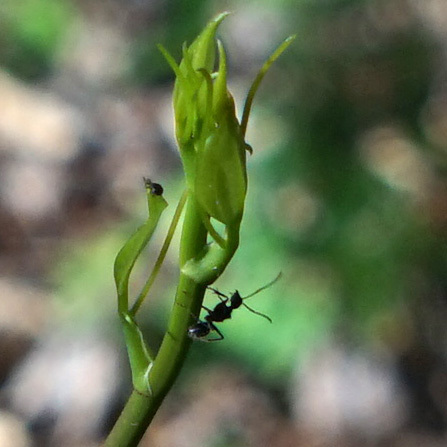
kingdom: Animalia
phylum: Arthropoda
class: Insecta
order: Hymenoptera
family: Formicidae
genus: Camponotus
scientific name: Camponotus pennsylvanicus
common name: Black carpenter ant
